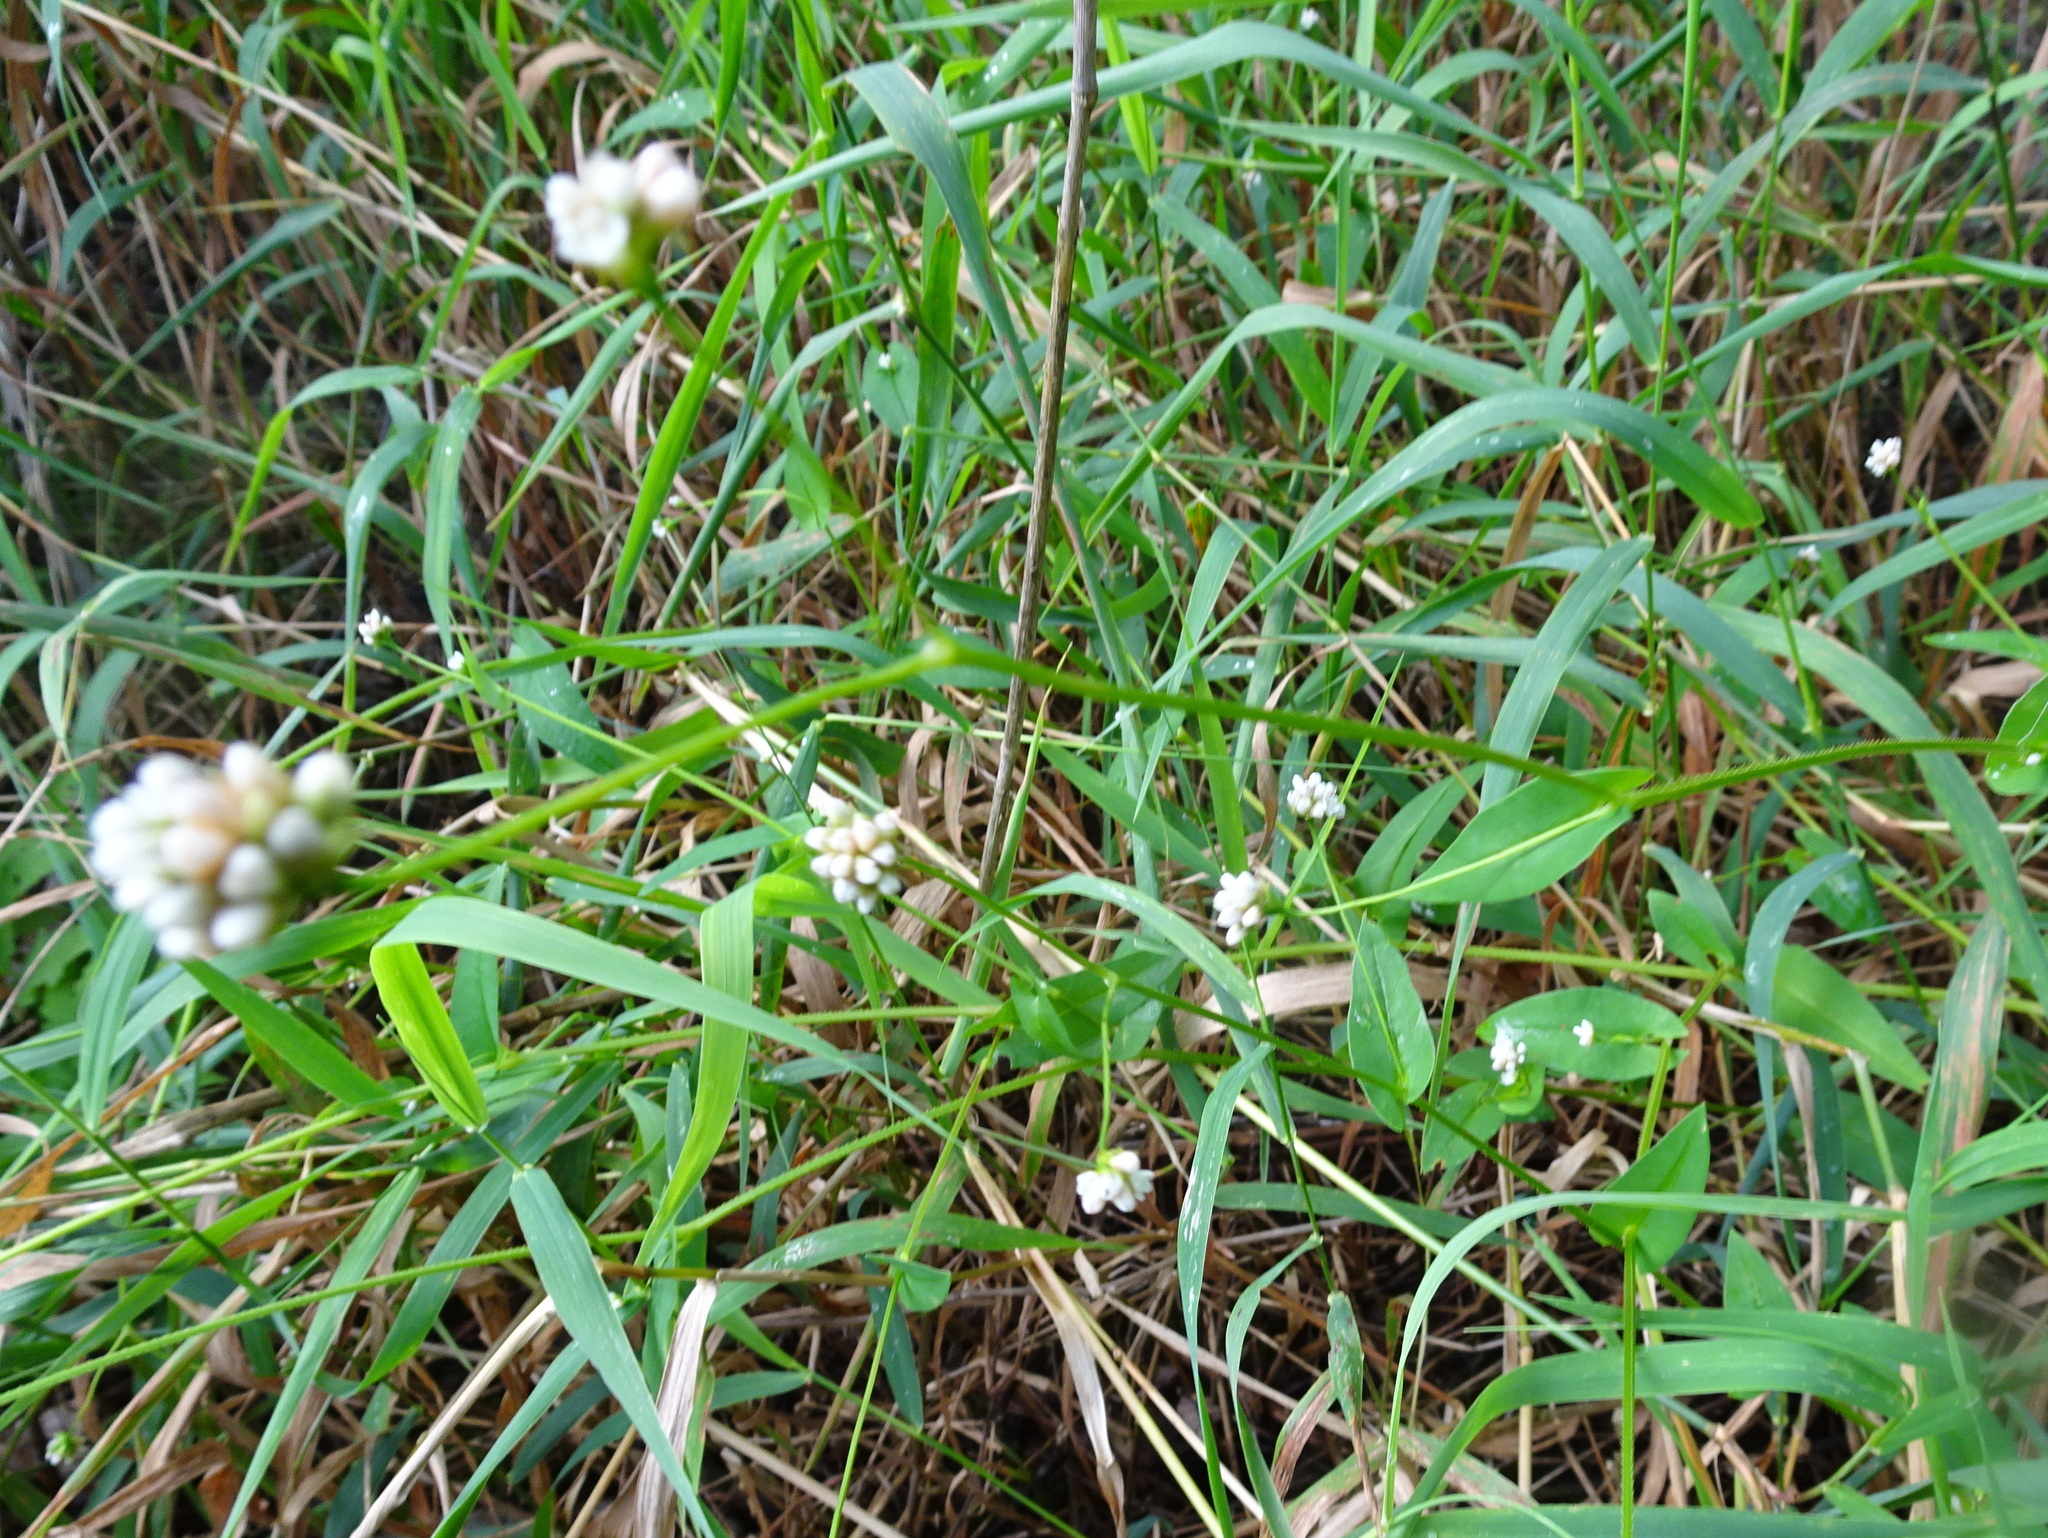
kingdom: Plantae
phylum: Tracheophyta
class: Magnoliopsida
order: Caryophyllales
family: Polygonaceae
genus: Persicaria
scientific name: Persicaria sagittata
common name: American tearthumb
